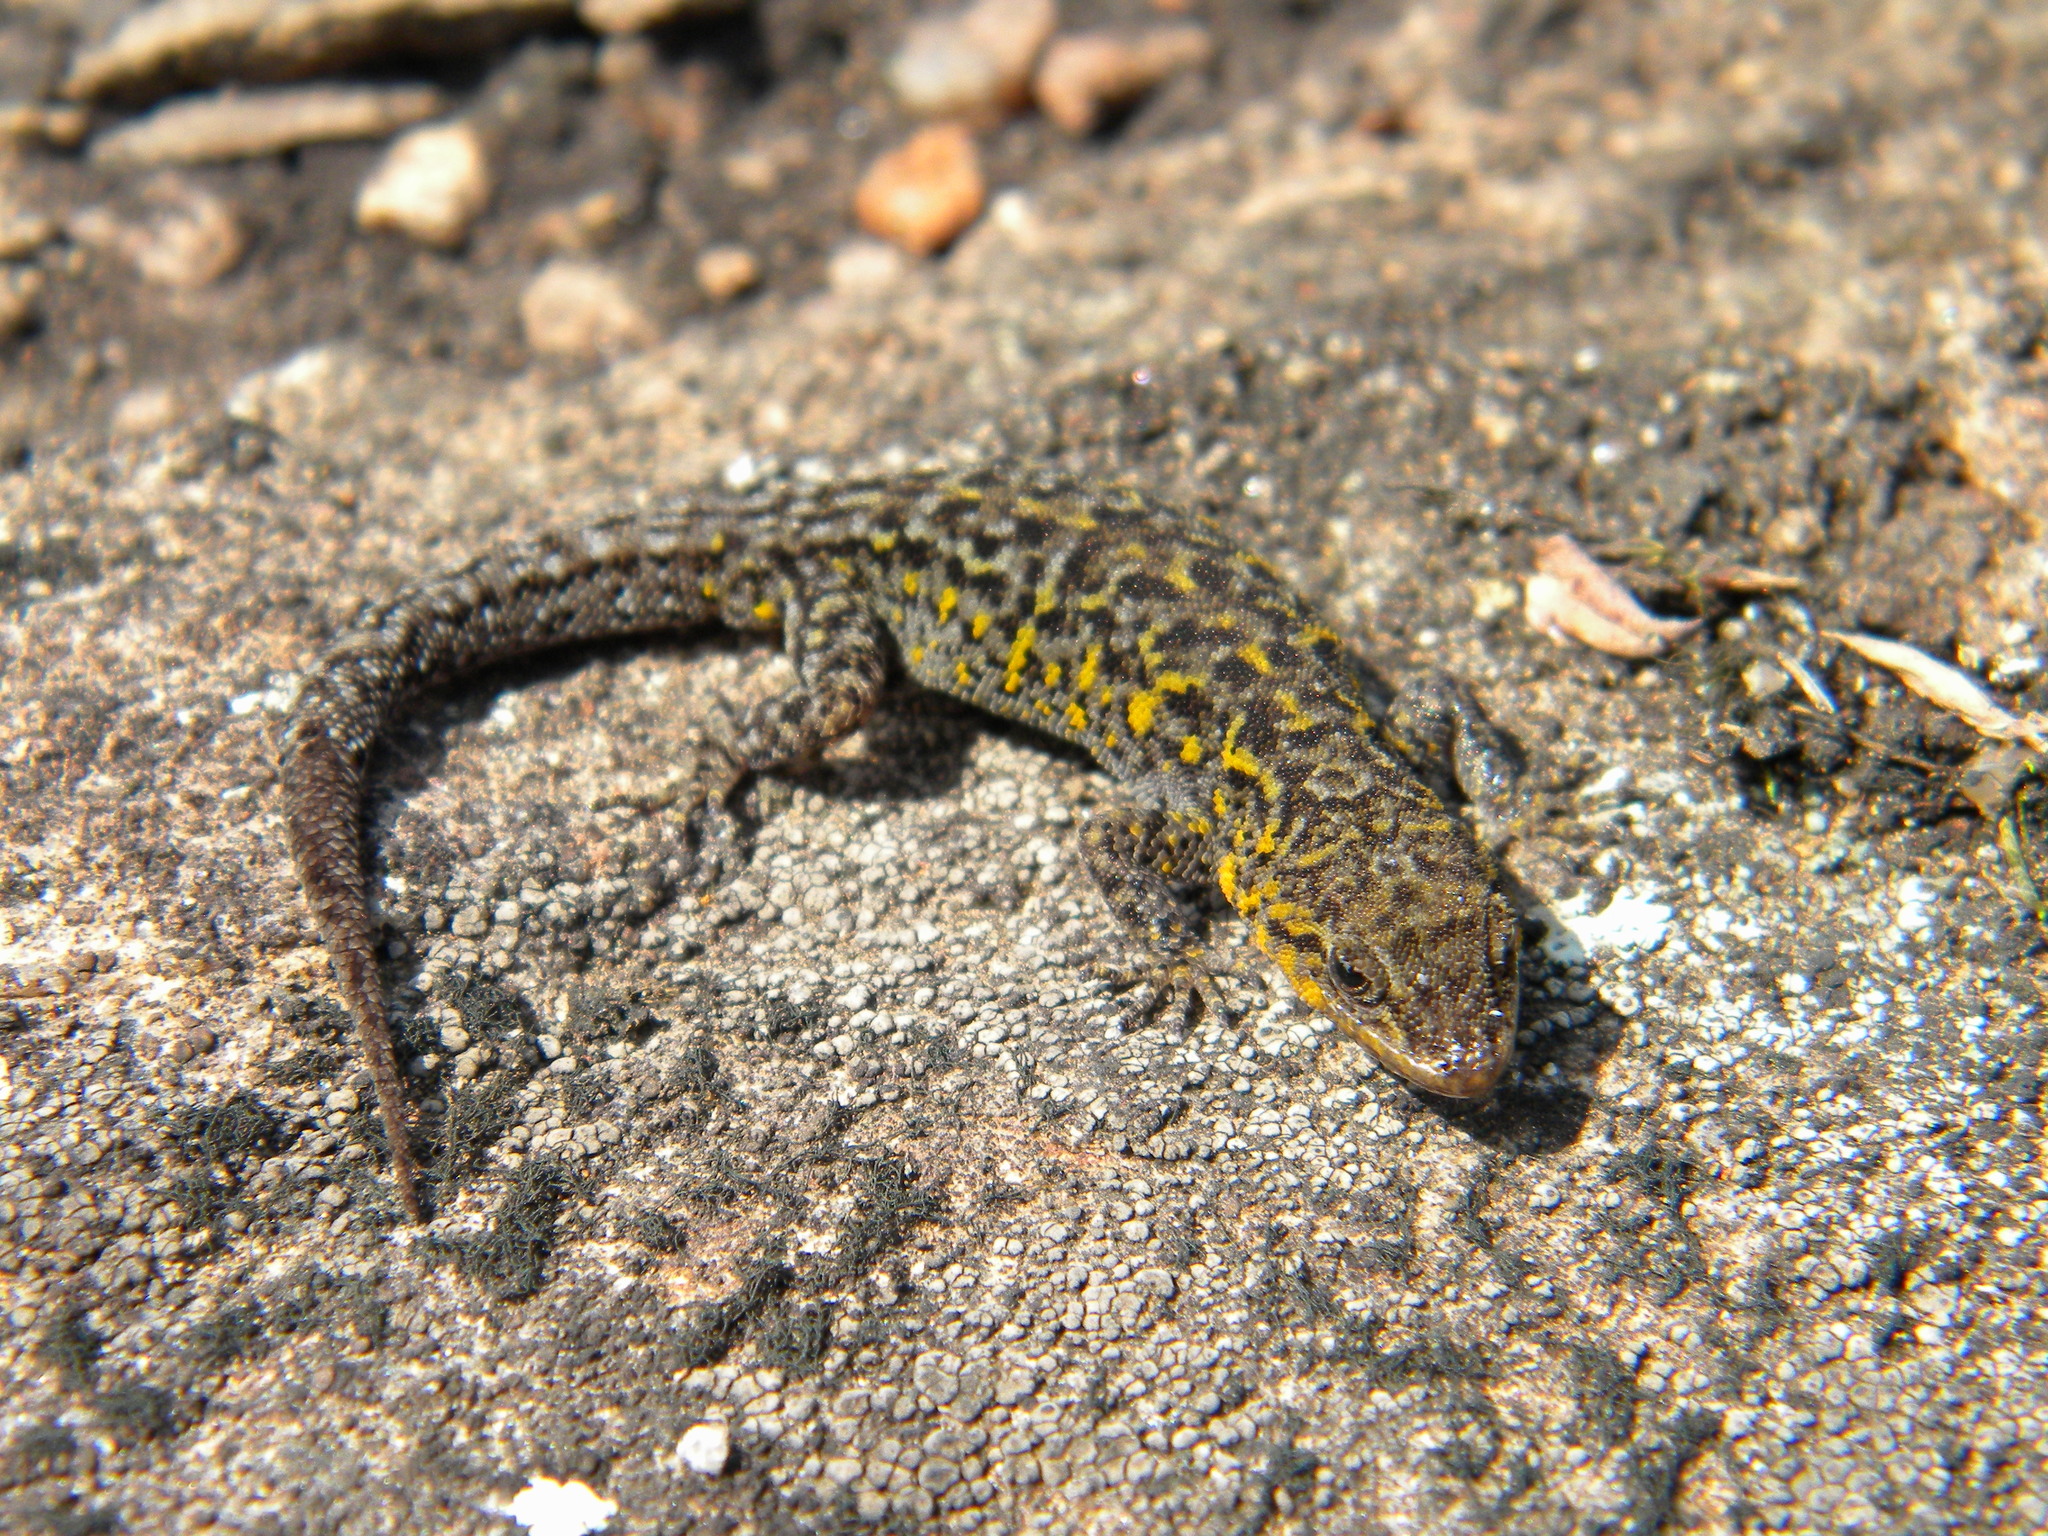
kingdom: Animalia
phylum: Chordata
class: Squamata
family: Gekkonidae
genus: Cnemaspis
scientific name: Cnemaspis indica
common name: Nilgiri dwarf gecko
